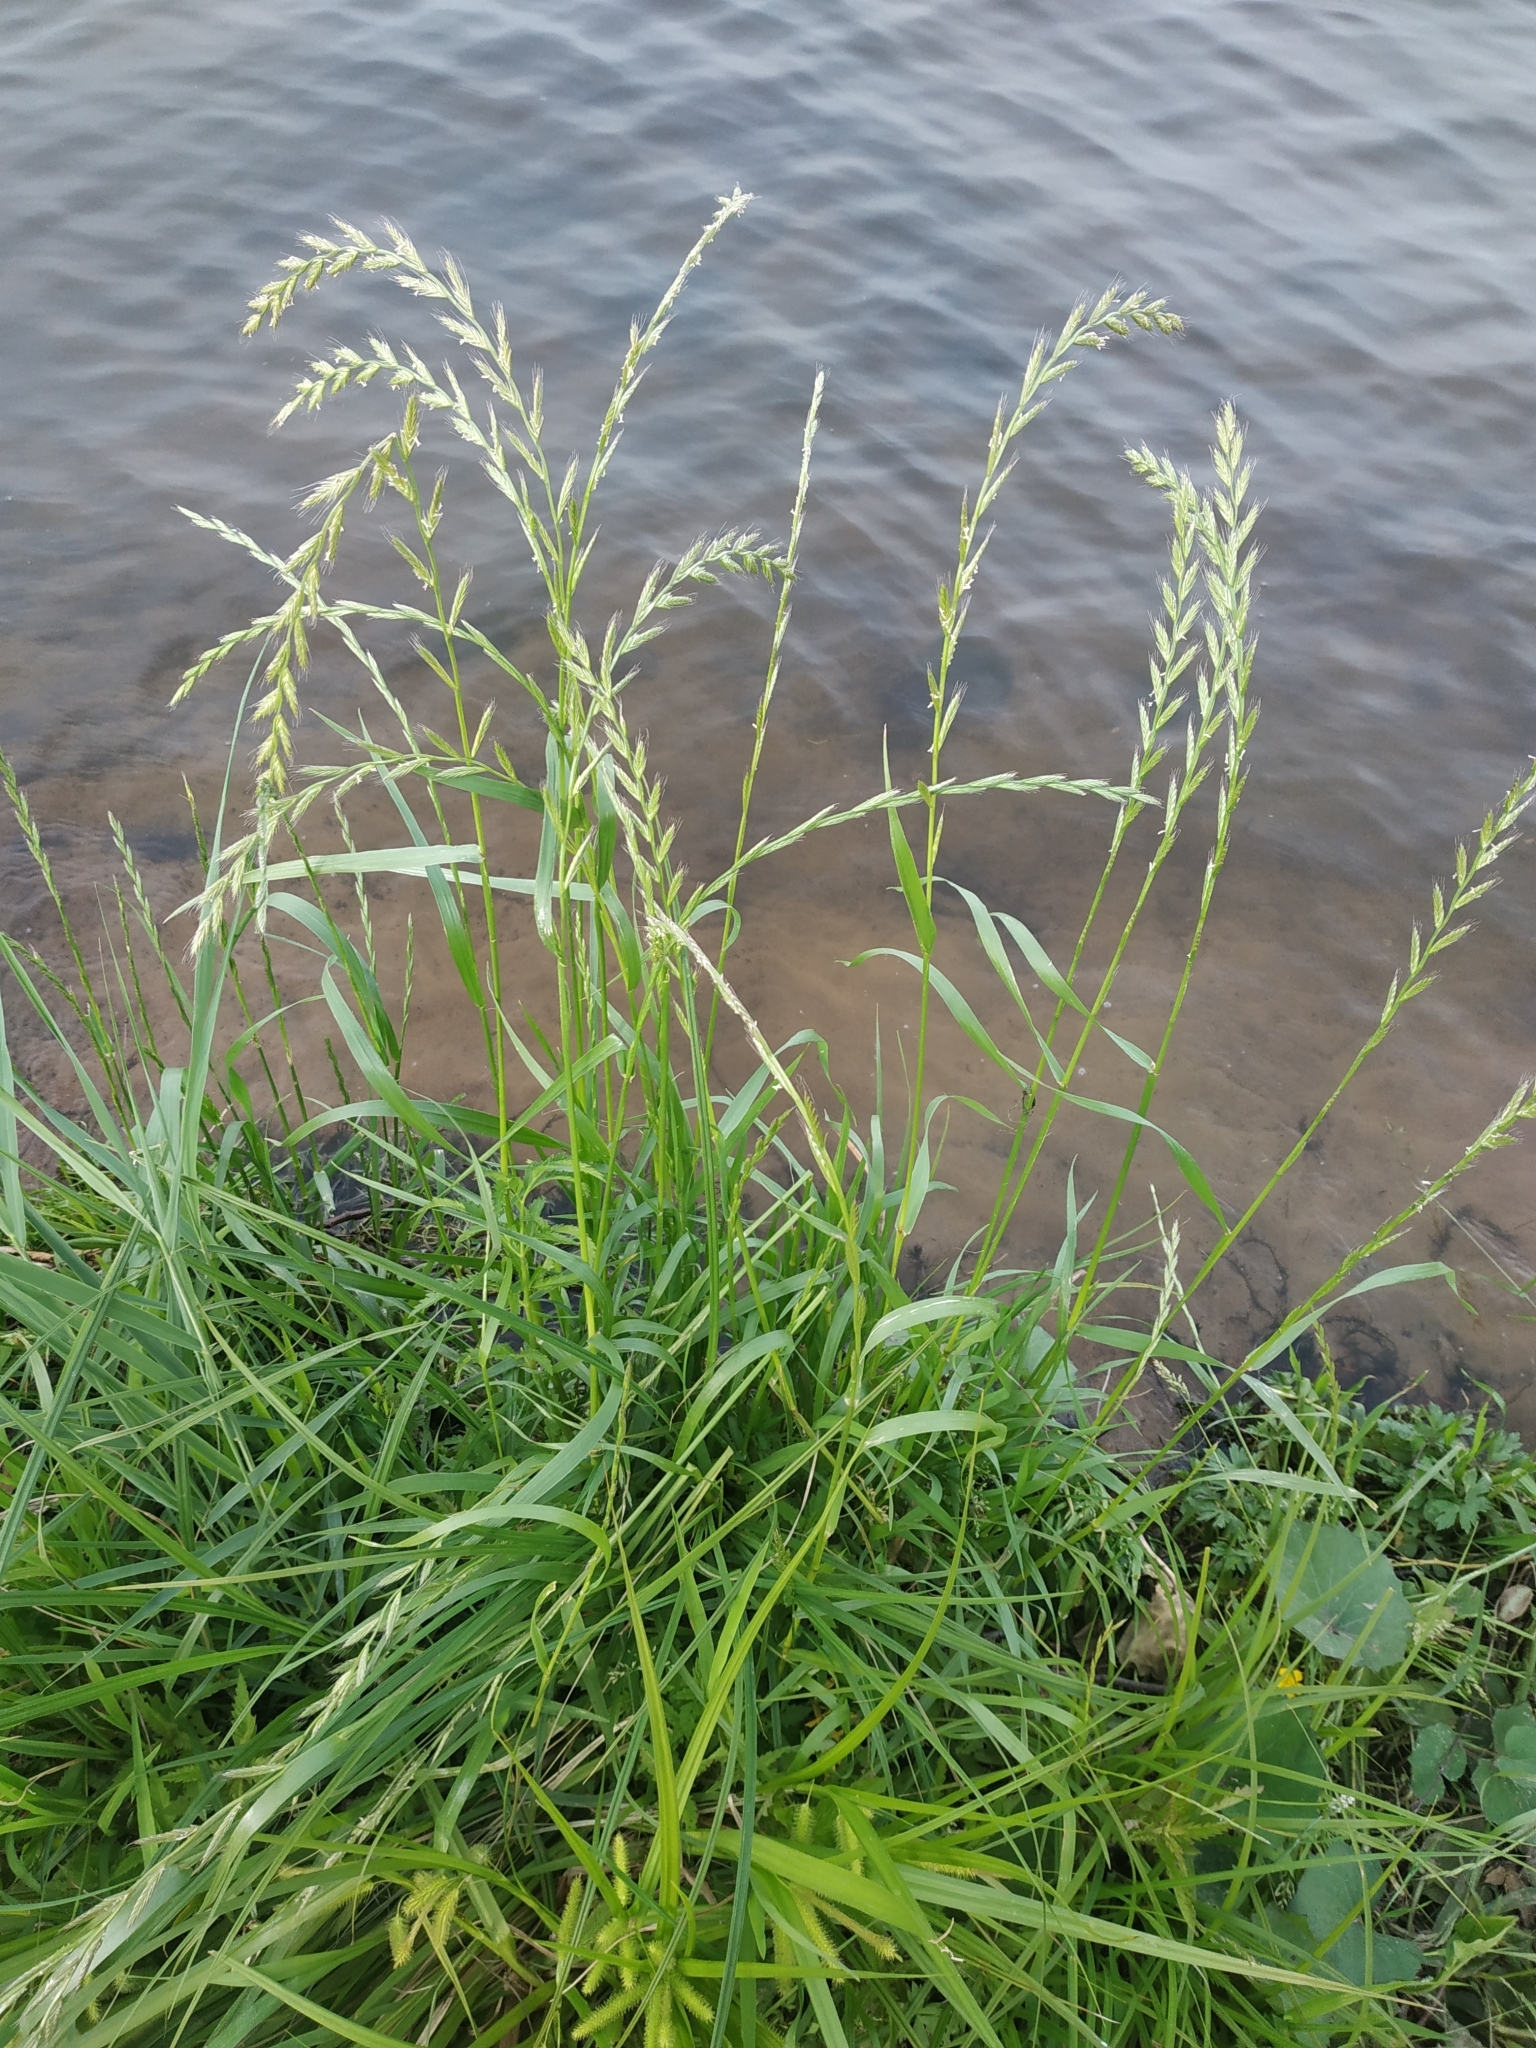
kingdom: Plantae
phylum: Tracheophyta
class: Liliopsida
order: Poales
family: Poaceae
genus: Lolium
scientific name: Lolium multiflorum
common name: Annual ryegrass
